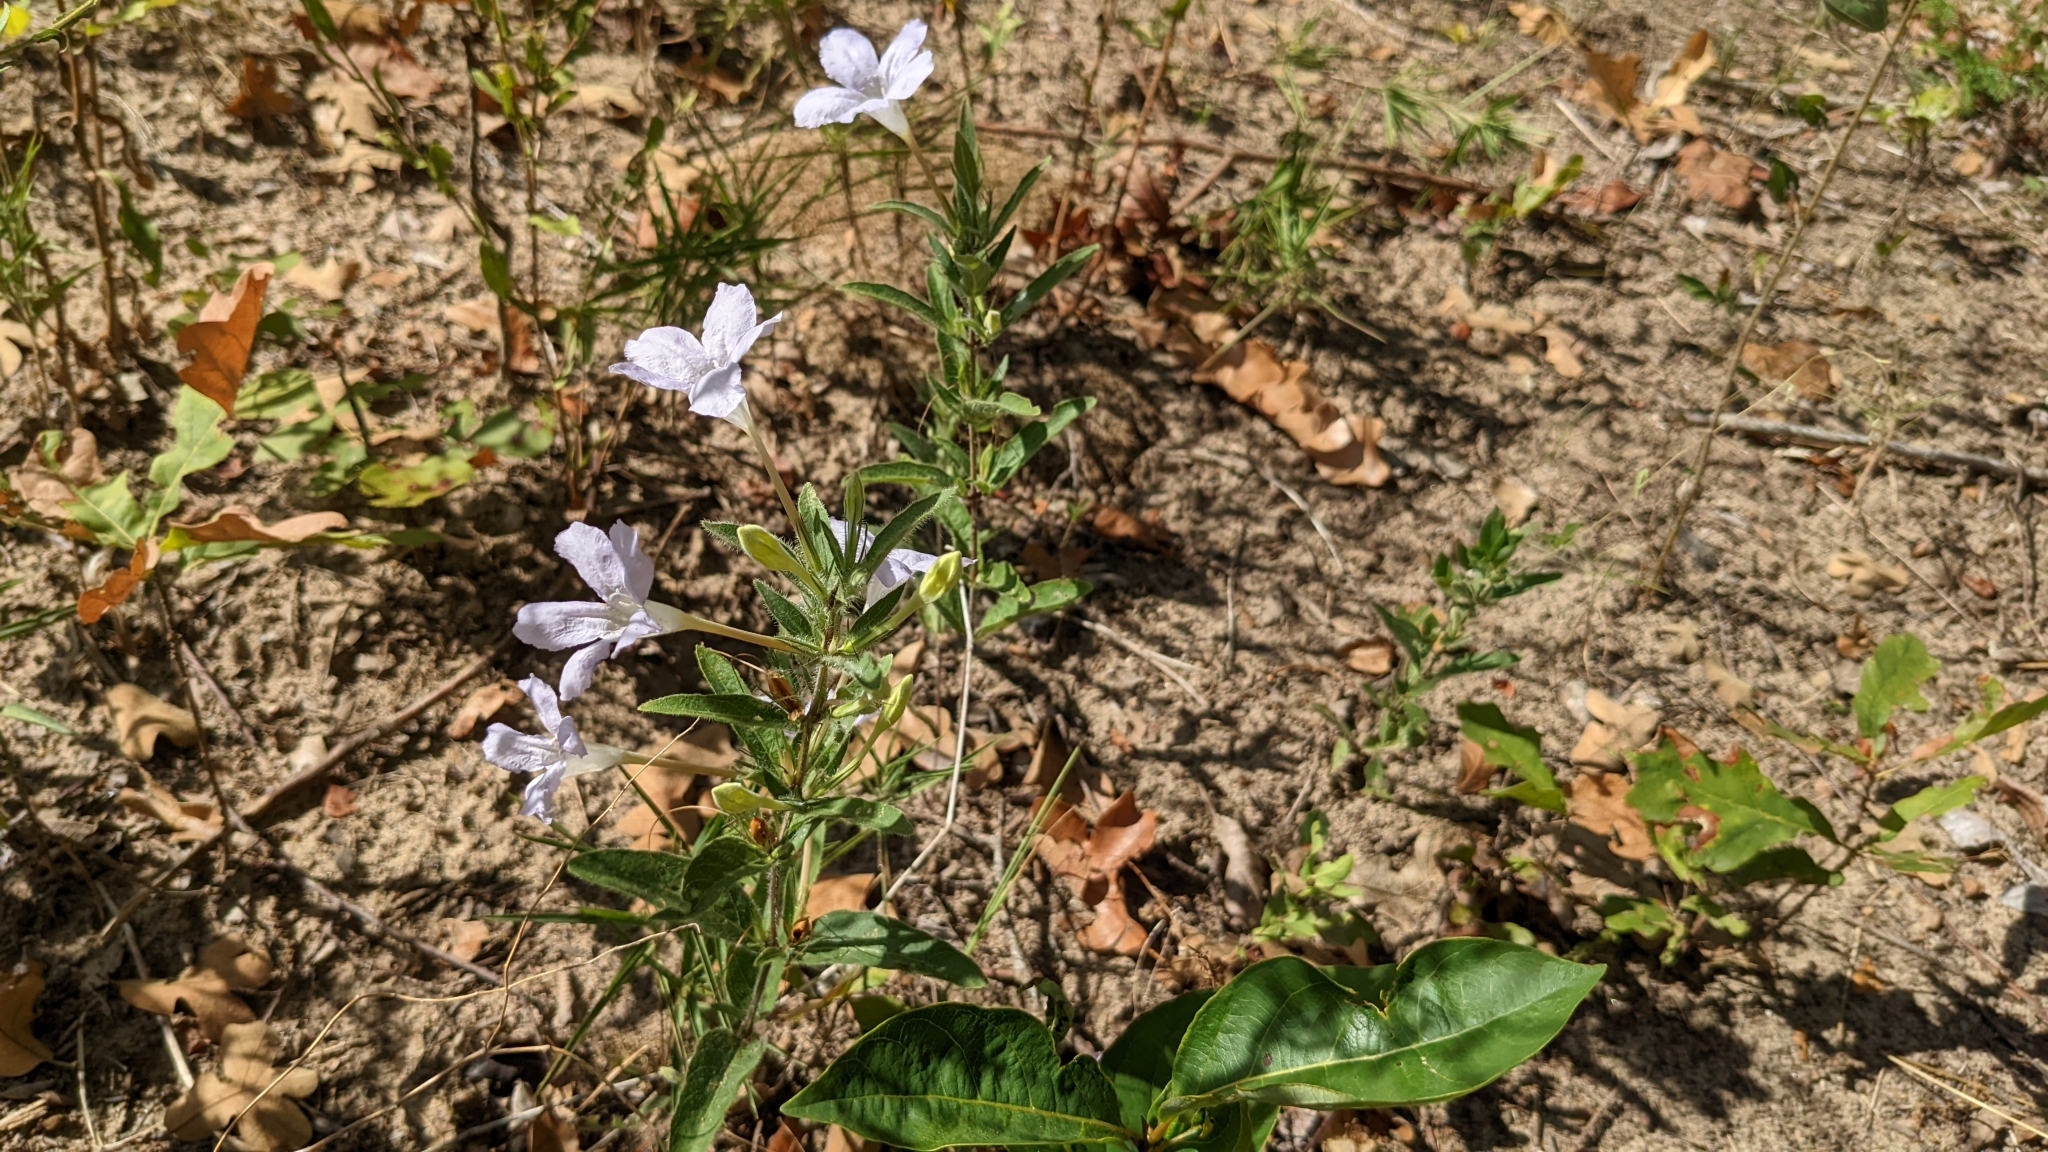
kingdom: Plantae
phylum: Tracheophyta
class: Magnoliopsida
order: Lamiales
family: Acanthaceae
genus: Ruellia
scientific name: Ruellia humilis
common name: Fringe-leaf ruellia
